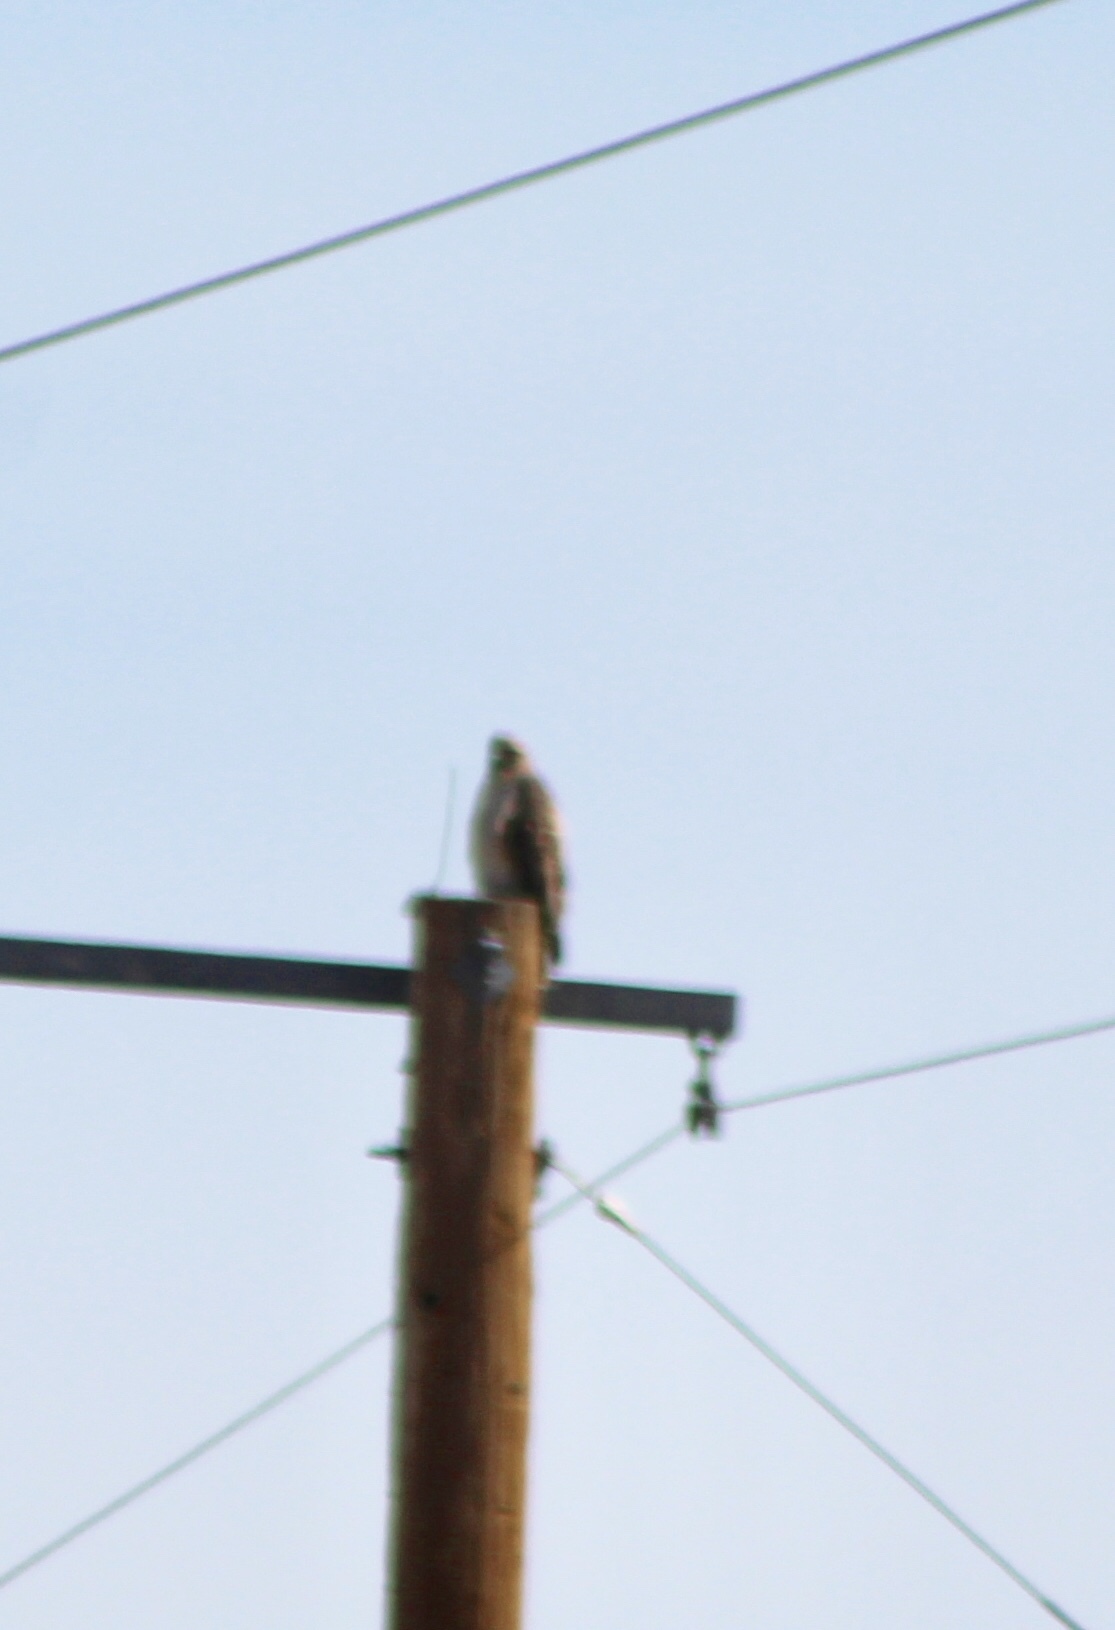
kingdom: Animalia
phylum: Chordata
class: Aves
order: Accipitriformes
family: Accipitridae
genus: Buteo
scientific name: Buteo jamaicensis
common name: Red-tailed hawk
